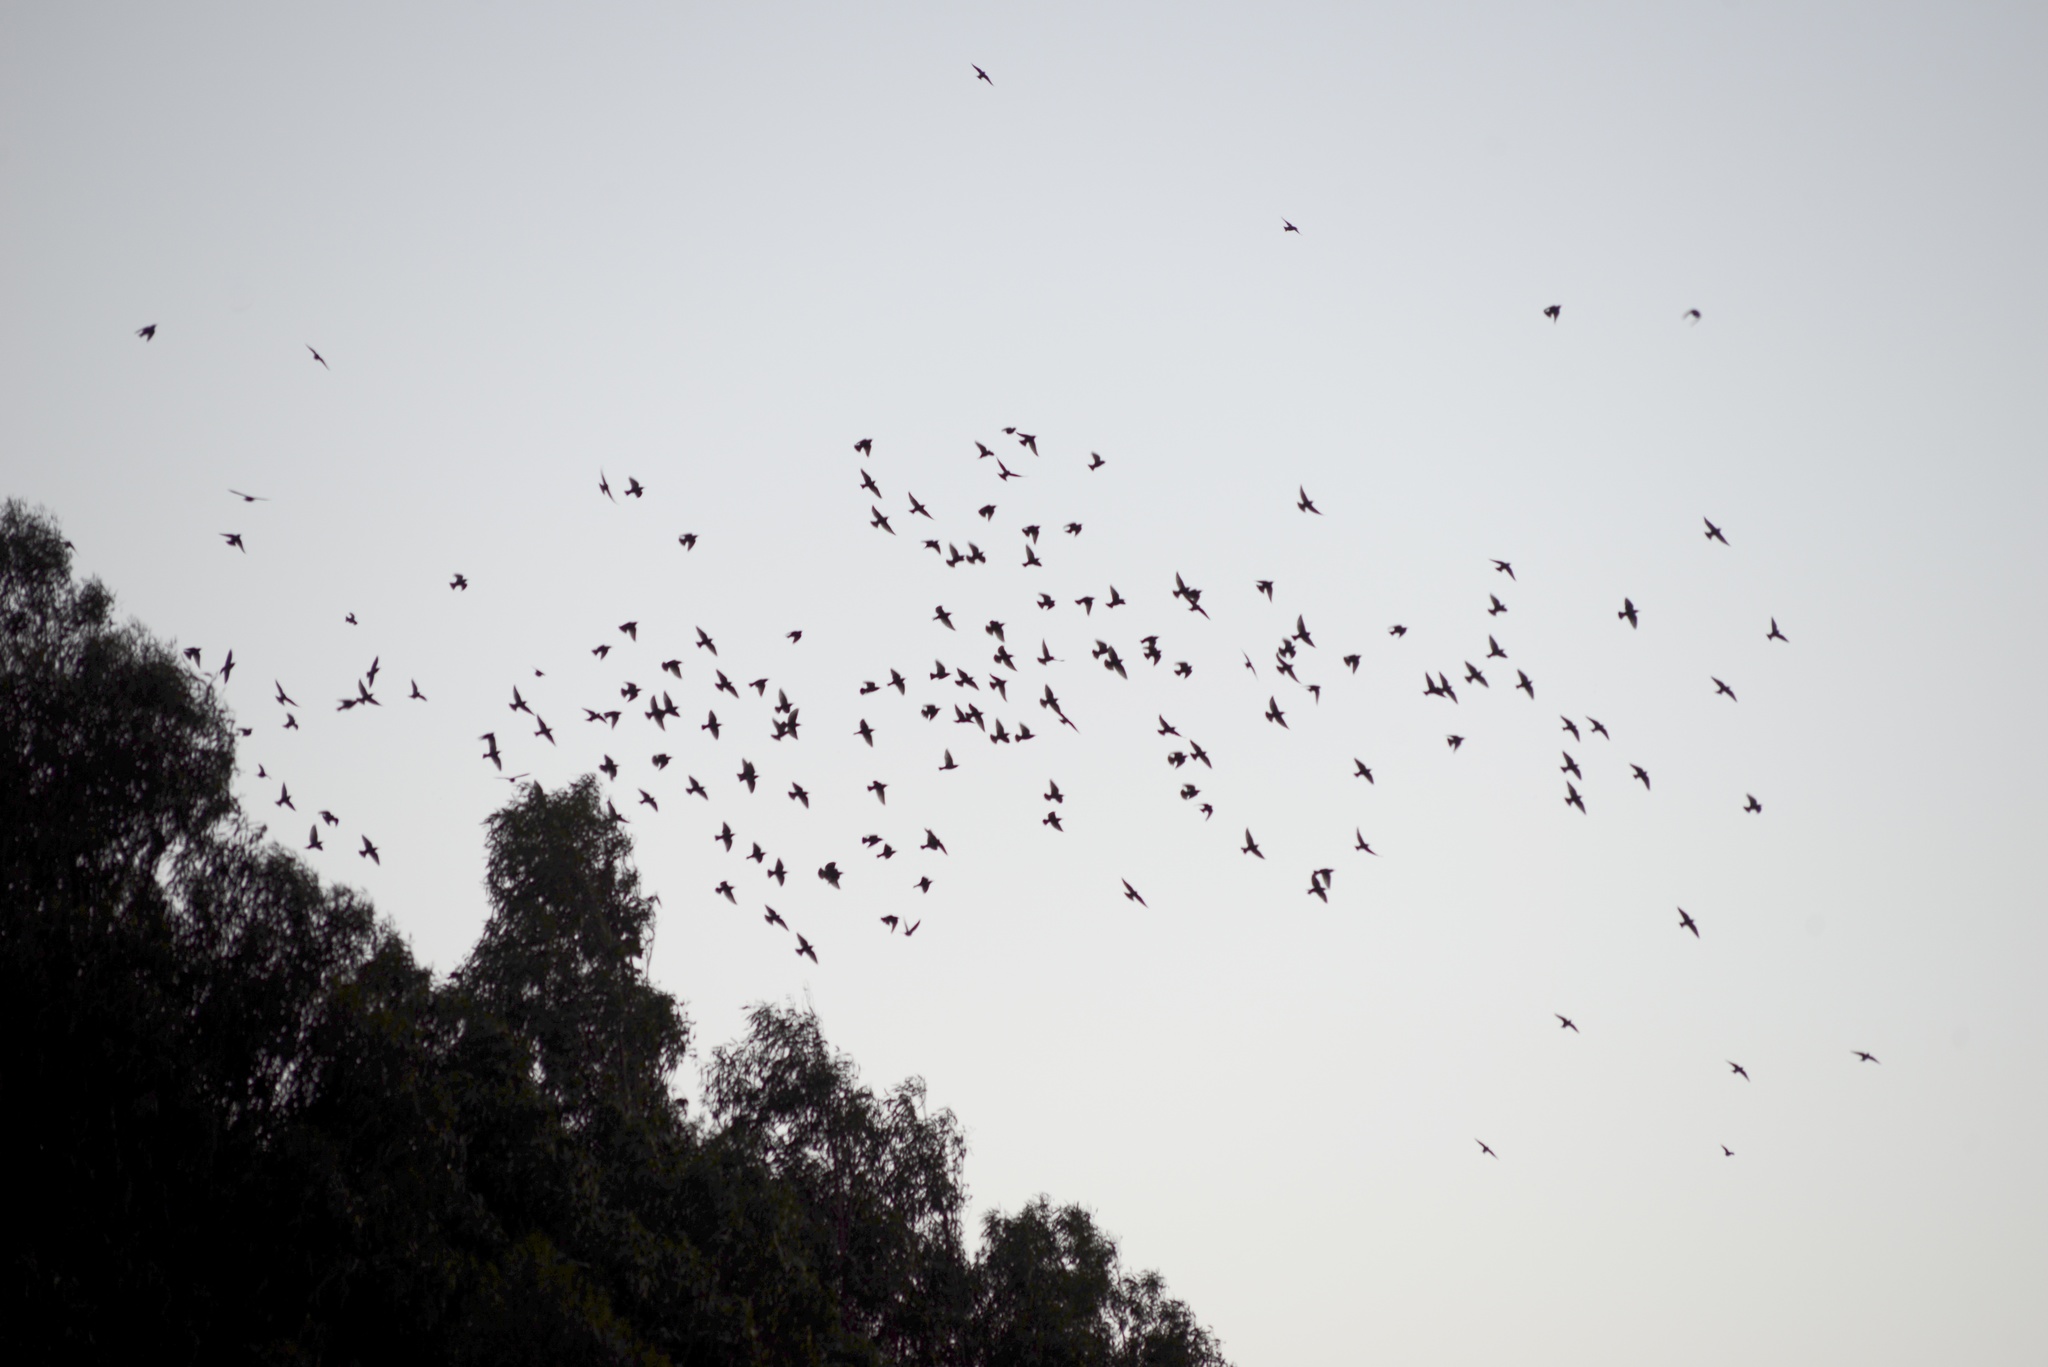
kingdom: Animalia
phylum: Chordata
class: Aves
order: Passeriformes
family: Sturnidae
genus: Sturnus
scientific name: Sturnus vulgaris
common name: Common starling
